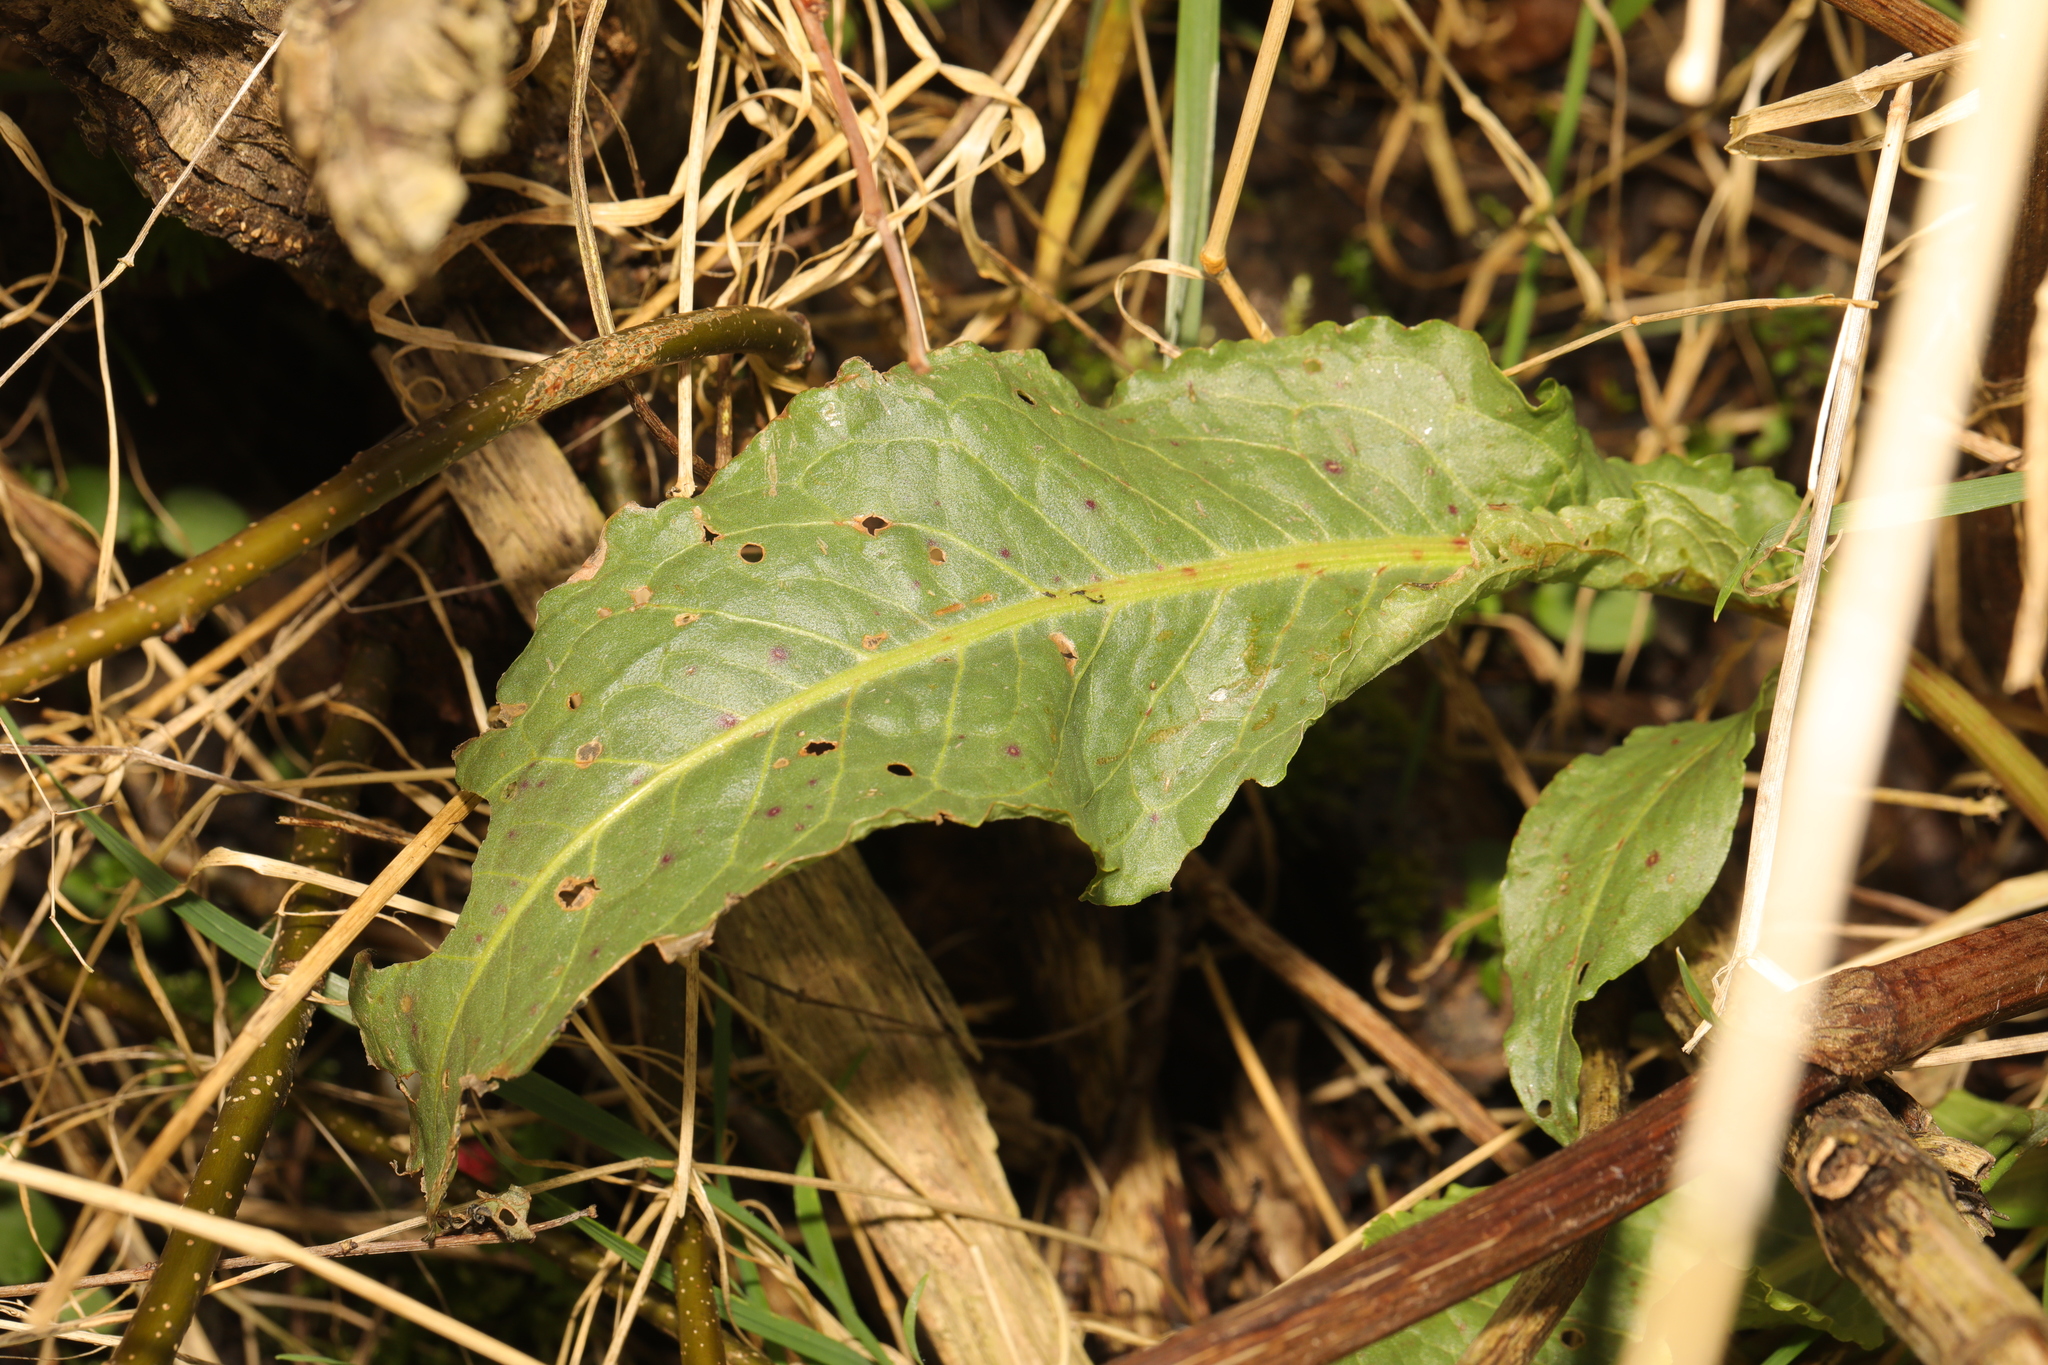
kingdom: Plantae
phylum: Tracheophyta
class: Magnoliopsida
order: Caryophyllales
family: Polygonaceae
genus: Rumex
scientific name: Rumex crispus
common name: Curled dock
